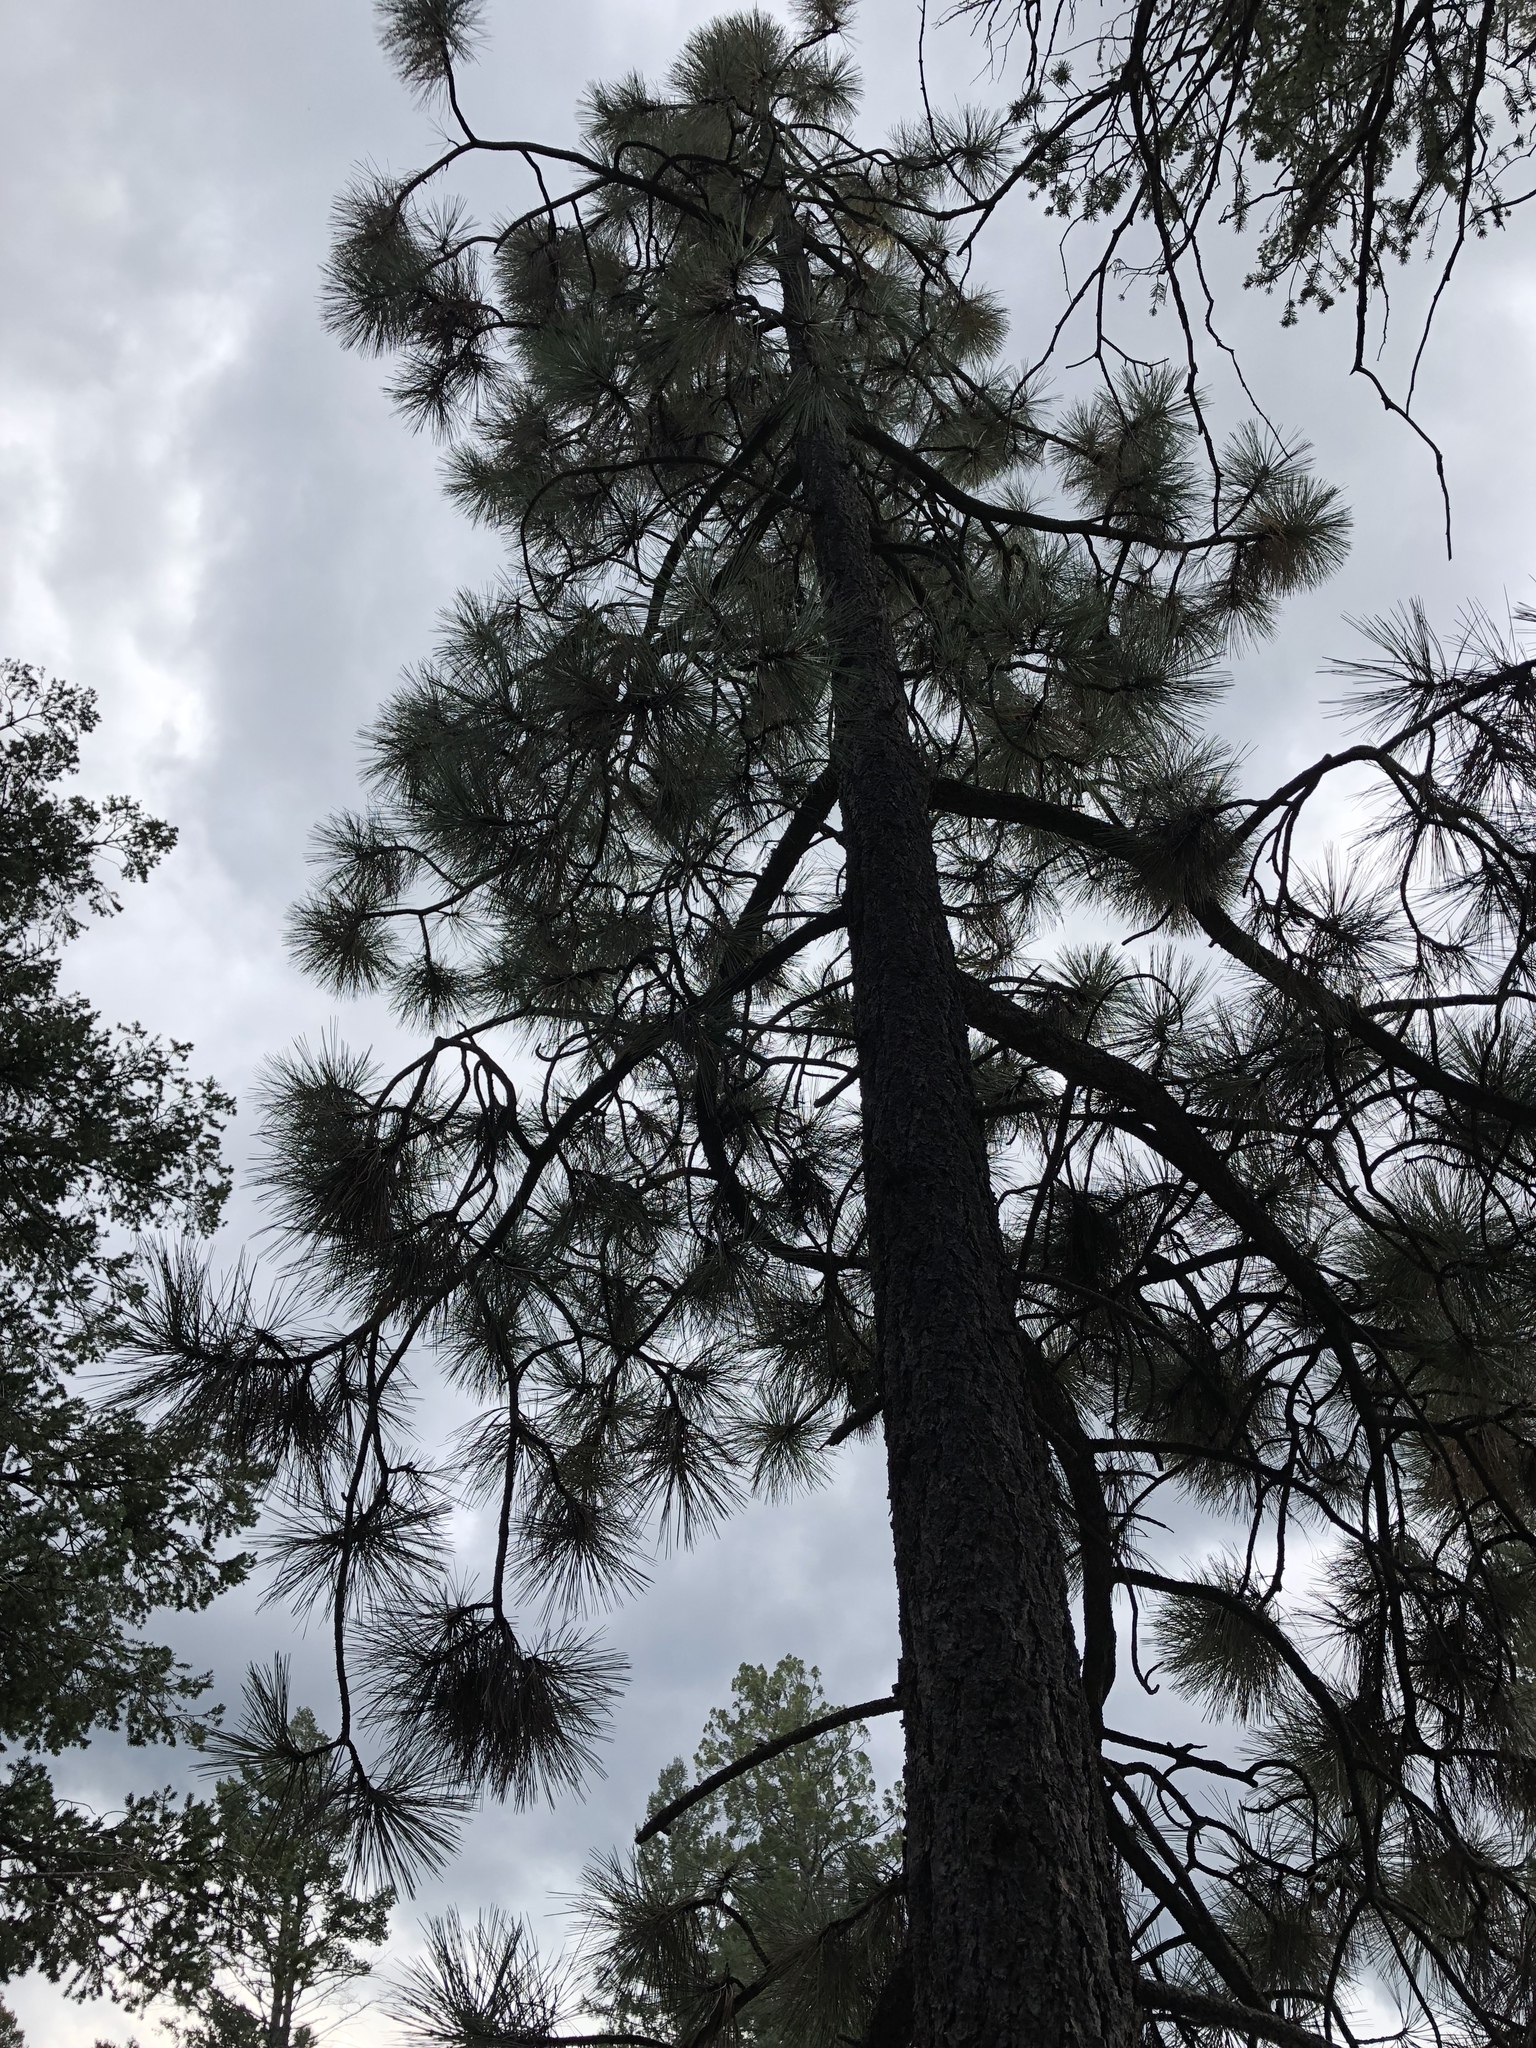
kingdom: Plantae
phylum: Tracheophyta
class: Pinopsida
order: Pinales
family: Pinaceae
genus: Pinus
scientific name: Pinus ponderosa
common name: Western yellow-pine
